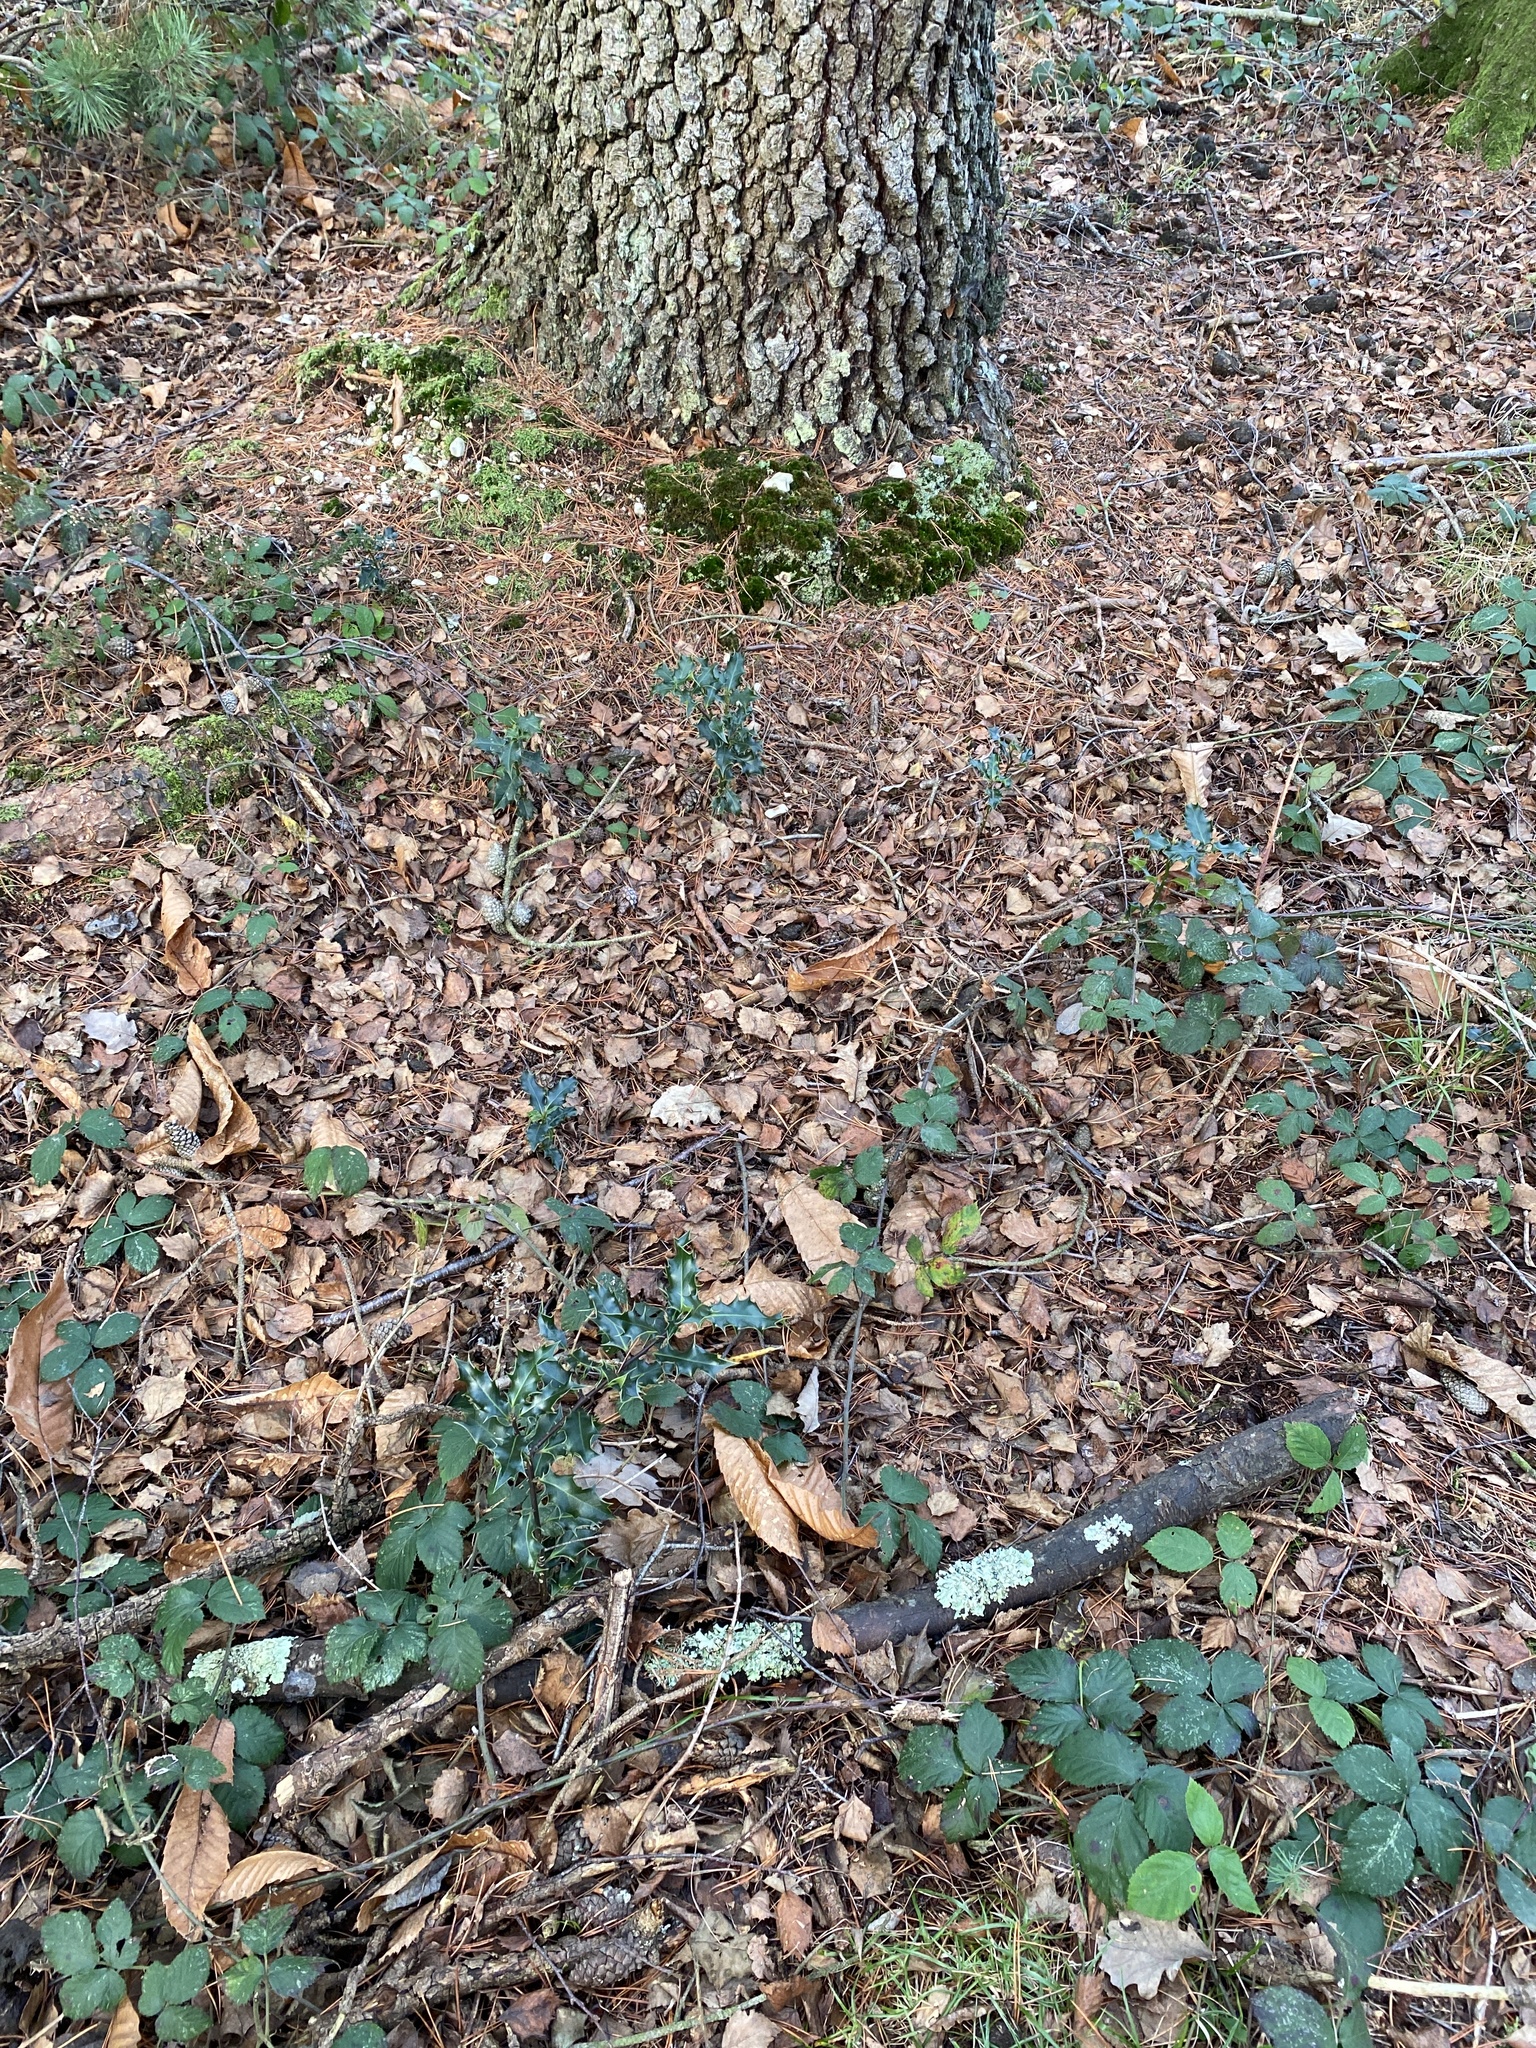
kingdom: Plantae
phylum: Tracheophyta
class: Magnoliopsida
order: Aquifoliales
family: Aquifoliaceae
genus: Ilex
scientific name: Ilex aquifolium
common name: English holly
